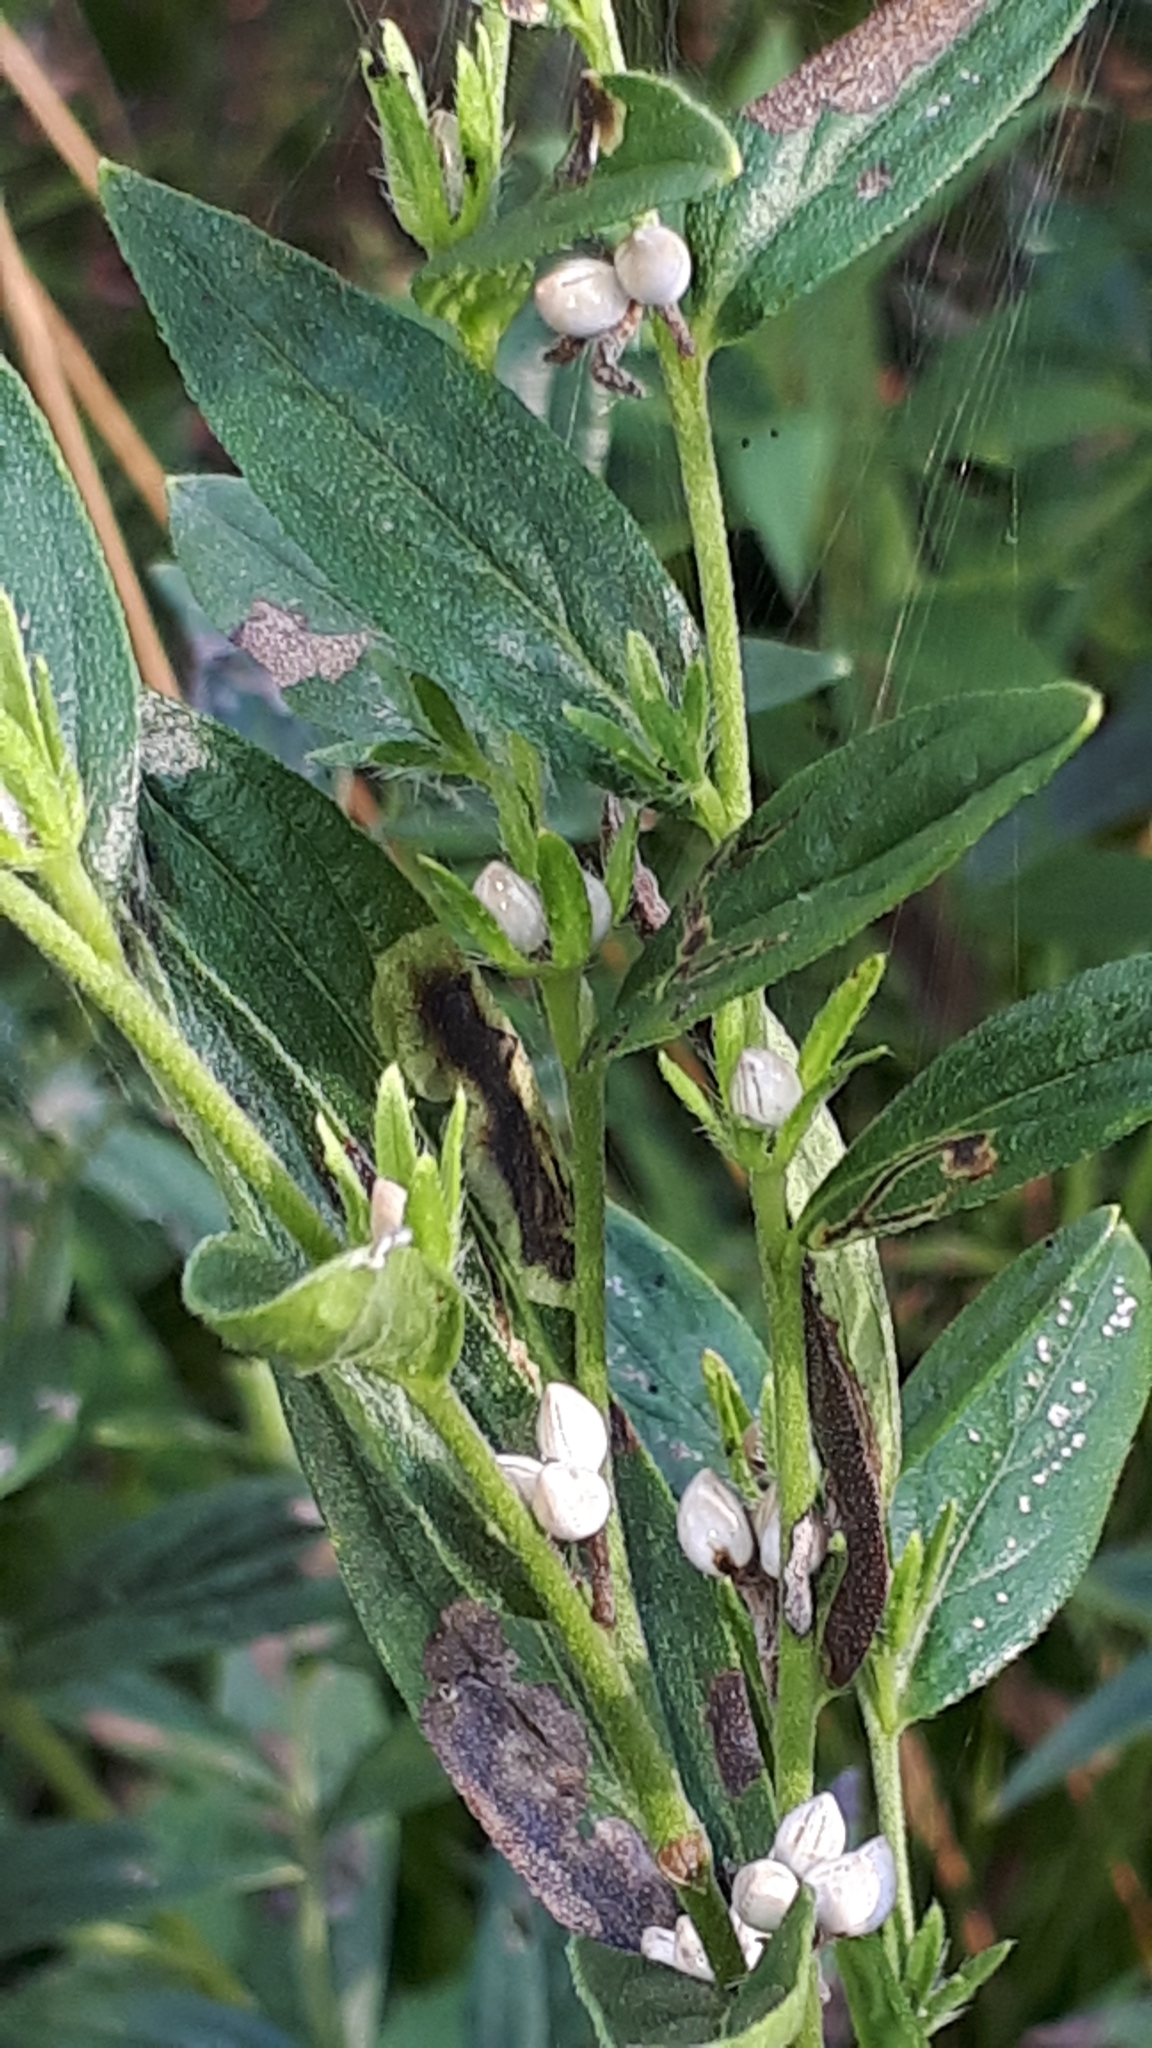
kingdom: Plantae
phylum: Tracheophyta
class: Magnoliopsida
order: Boraginales
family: Boraginaceae
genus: Lithospermum
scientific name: Lithospermum officinale
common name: Common gromwell
